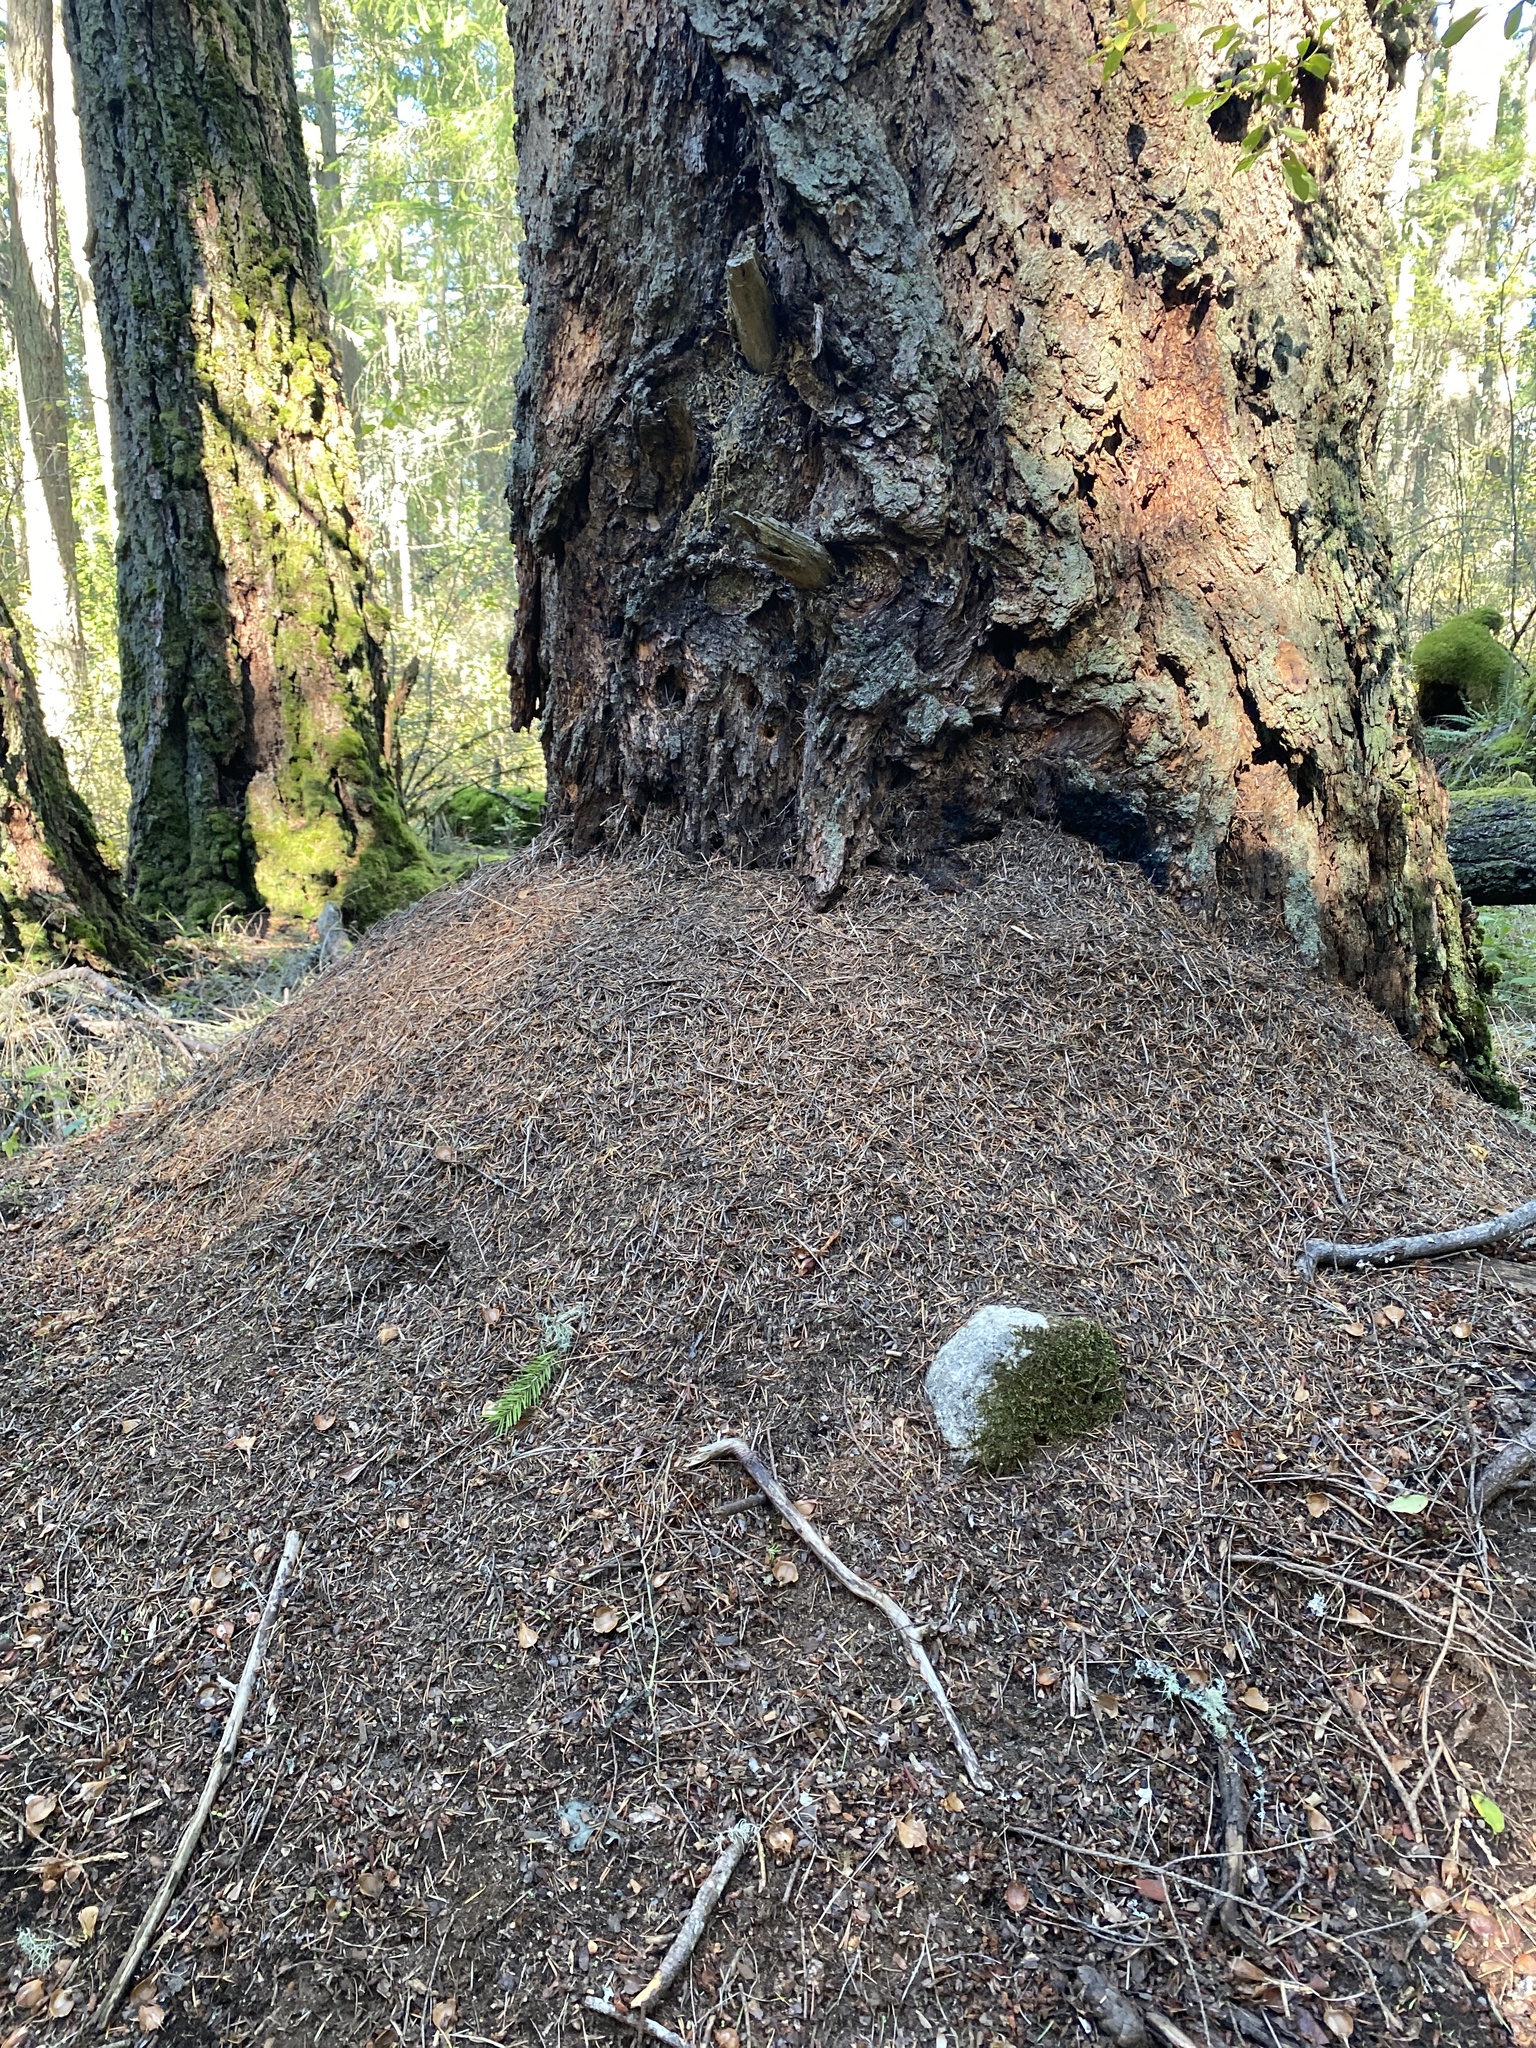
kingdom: Animalia
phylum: Arthropoda
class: Insecta
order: Hymenoptera
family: Formicidae
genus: Formica
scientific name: Formica obscuripes
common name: Western thatching ant
